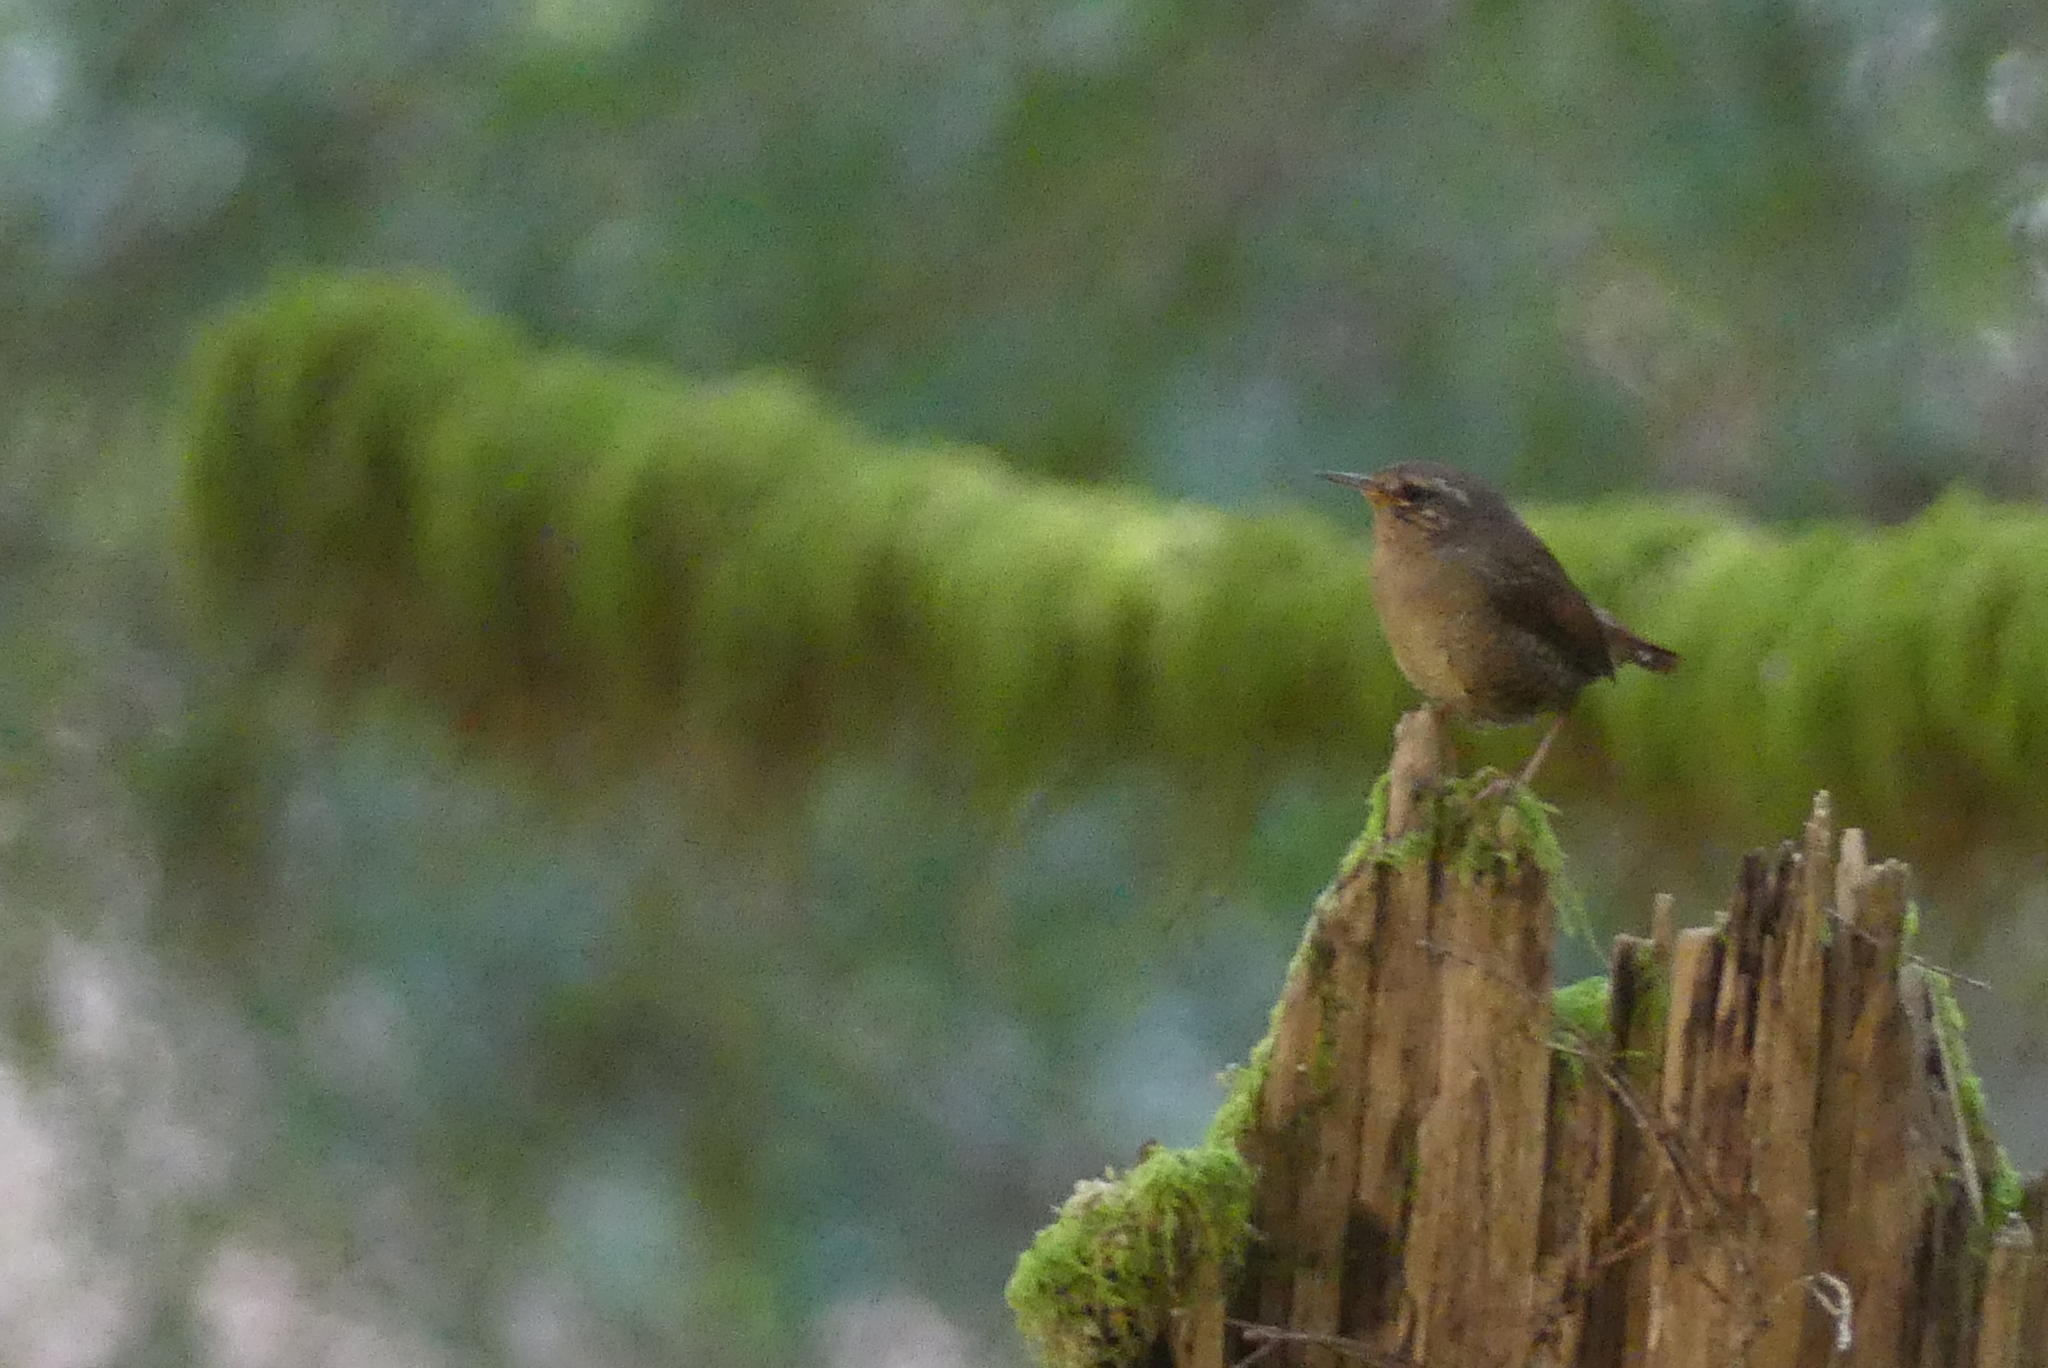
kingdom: Animalia
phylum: Chordata
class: Aves
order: Passeriformes
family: Troglodytidae
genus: Troglodytes
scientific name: Troglodytes pacificus
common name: Pacific wren
